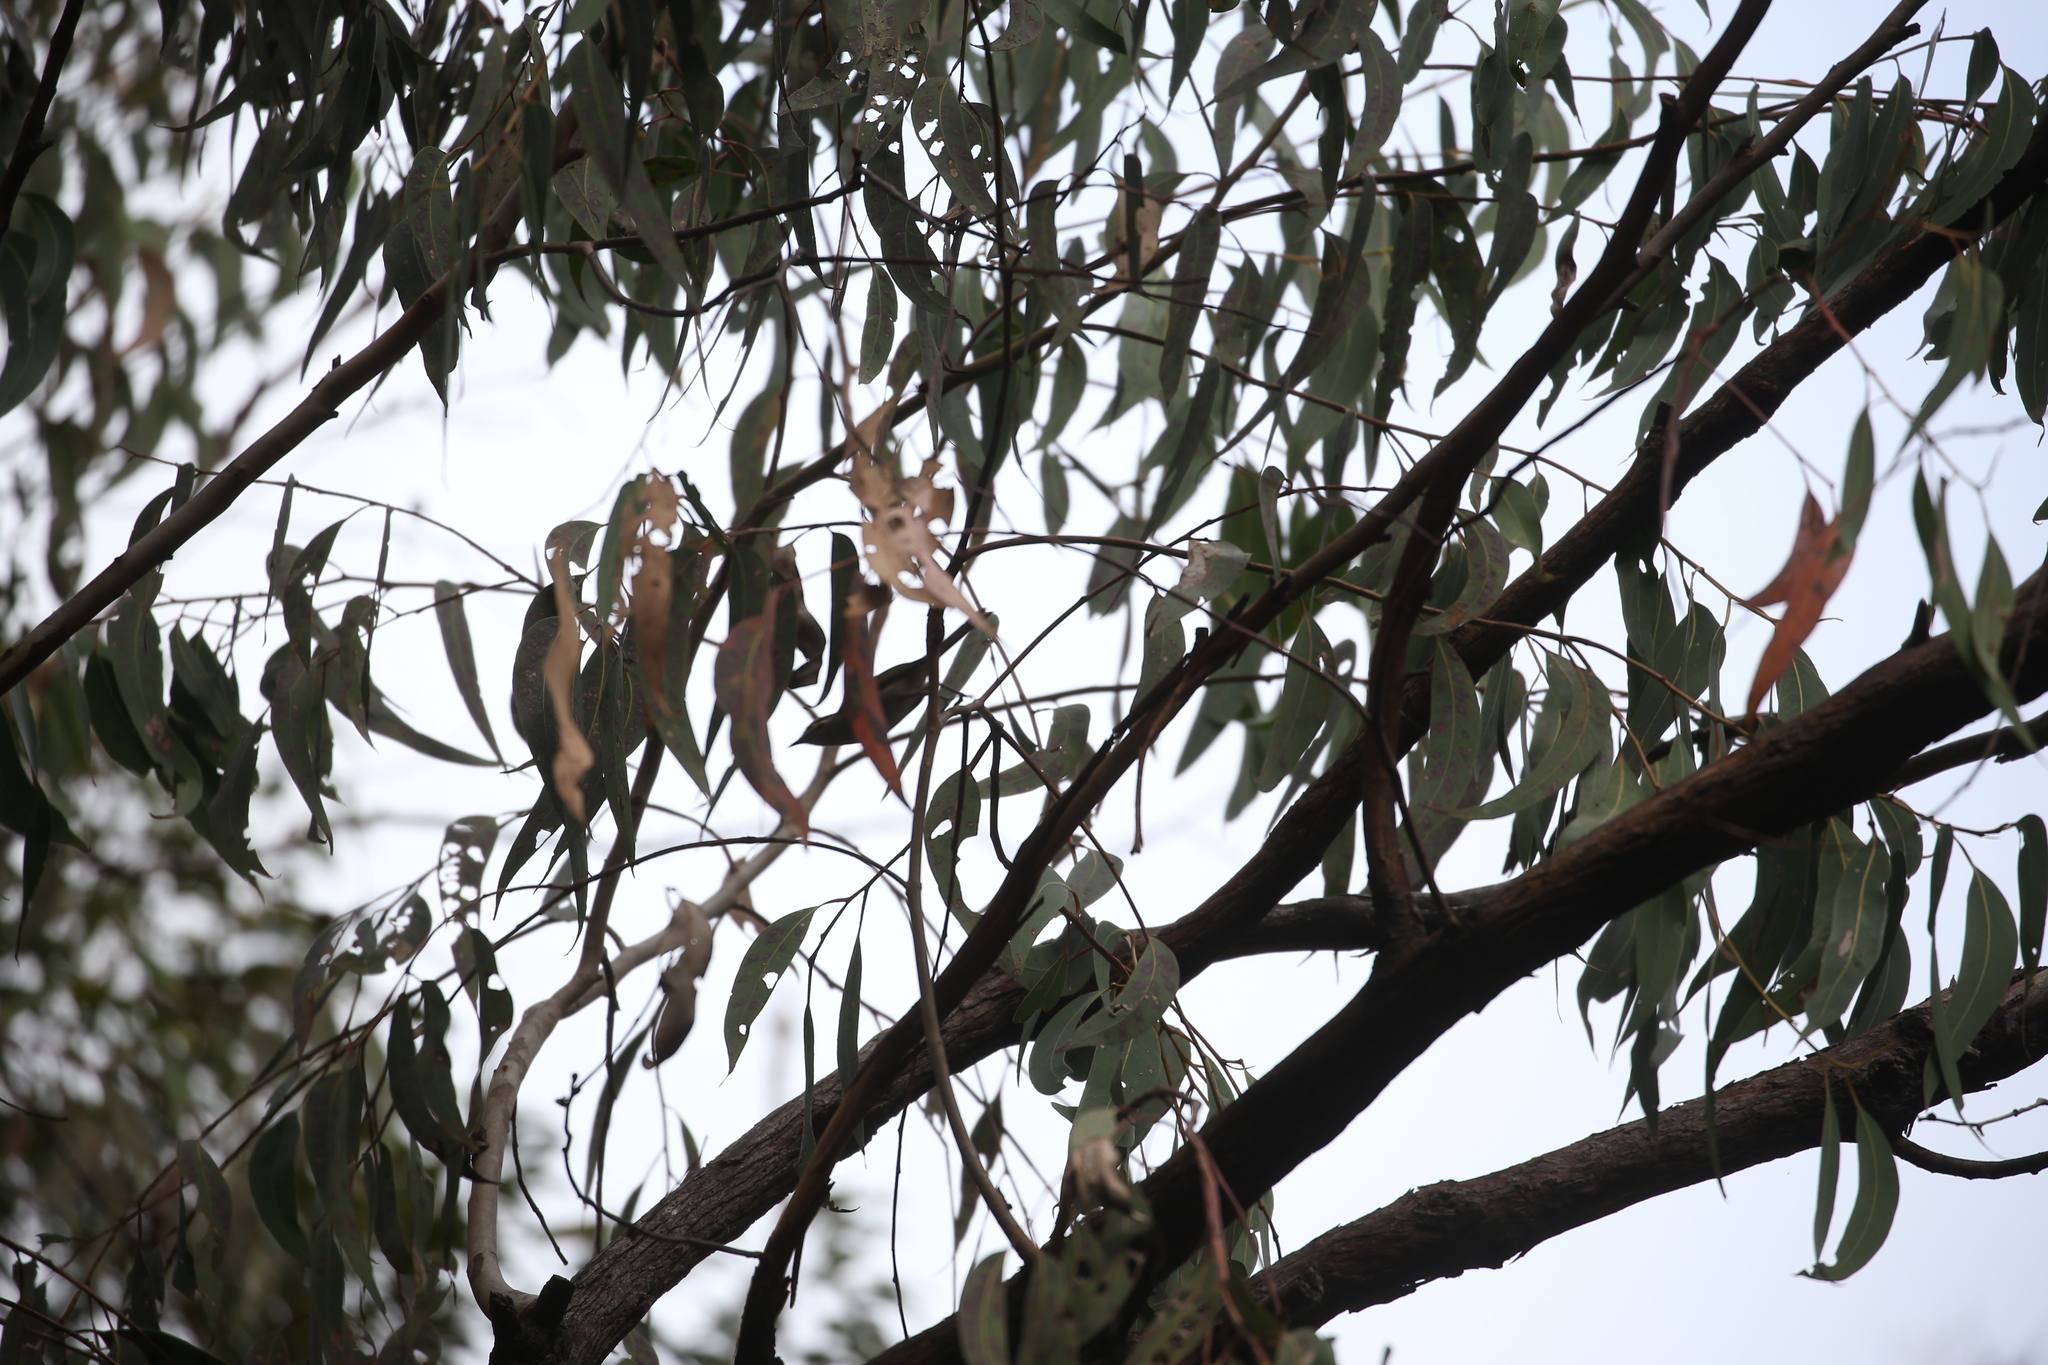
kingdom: Animalia
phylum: Chordata
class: Aves
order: Passeriformes
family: Meliphagidae
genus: Caligavis
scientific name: Caligavis chrysops
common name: Yellow-faced honeyeater
